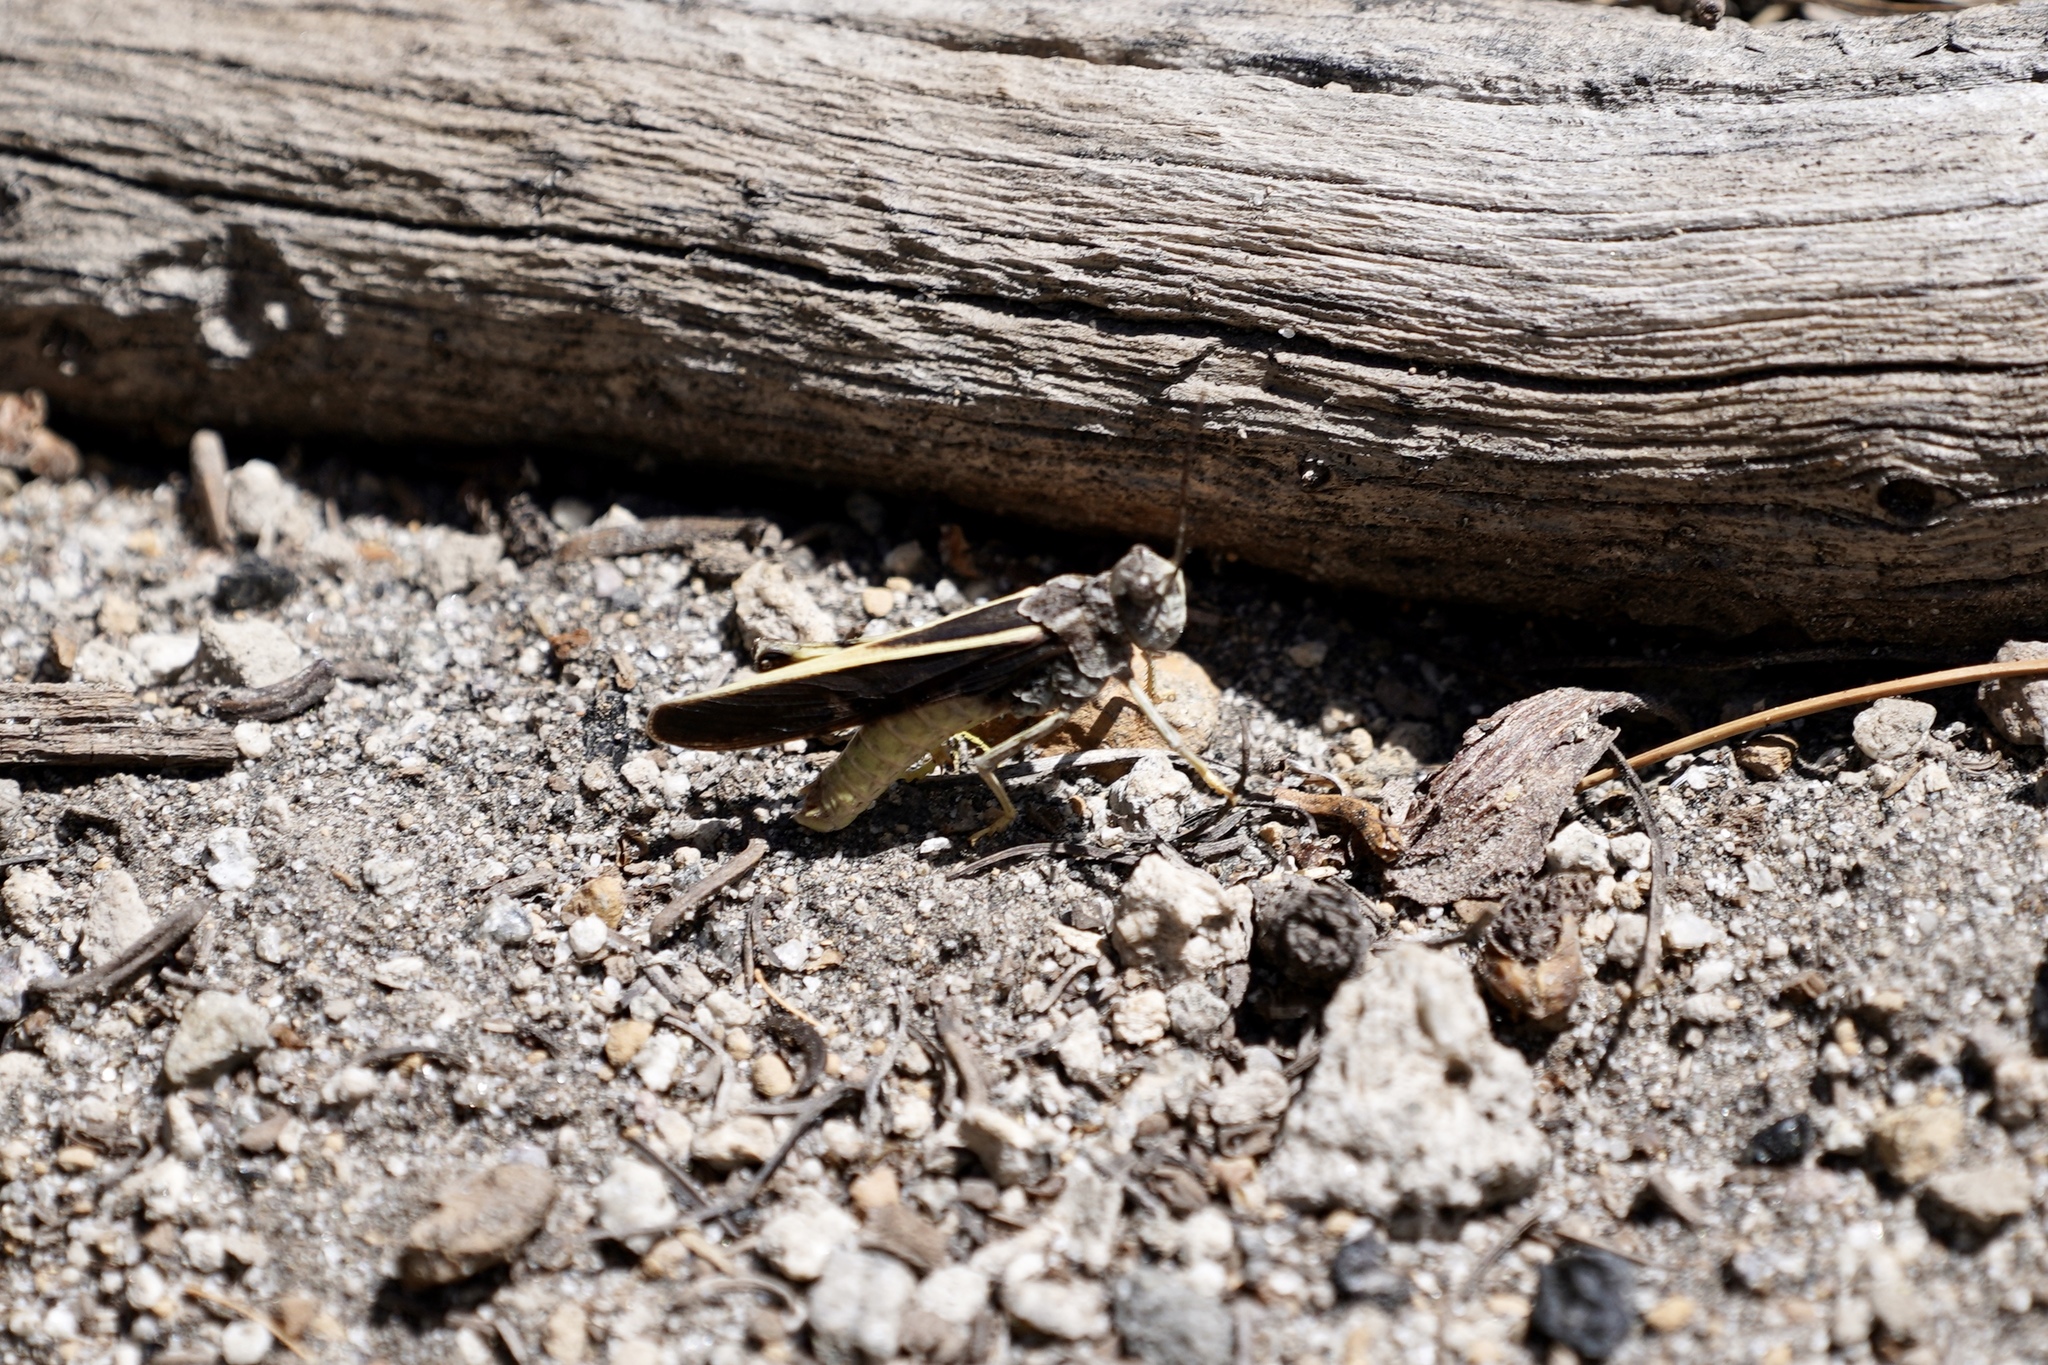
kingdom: Animalia
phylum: Arthropoda
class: Insecta
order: Orthoptera
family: Acrididae
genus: Cratypedes
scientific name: Cratypedes lateritius
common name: Nevada red-winged grasshopper
